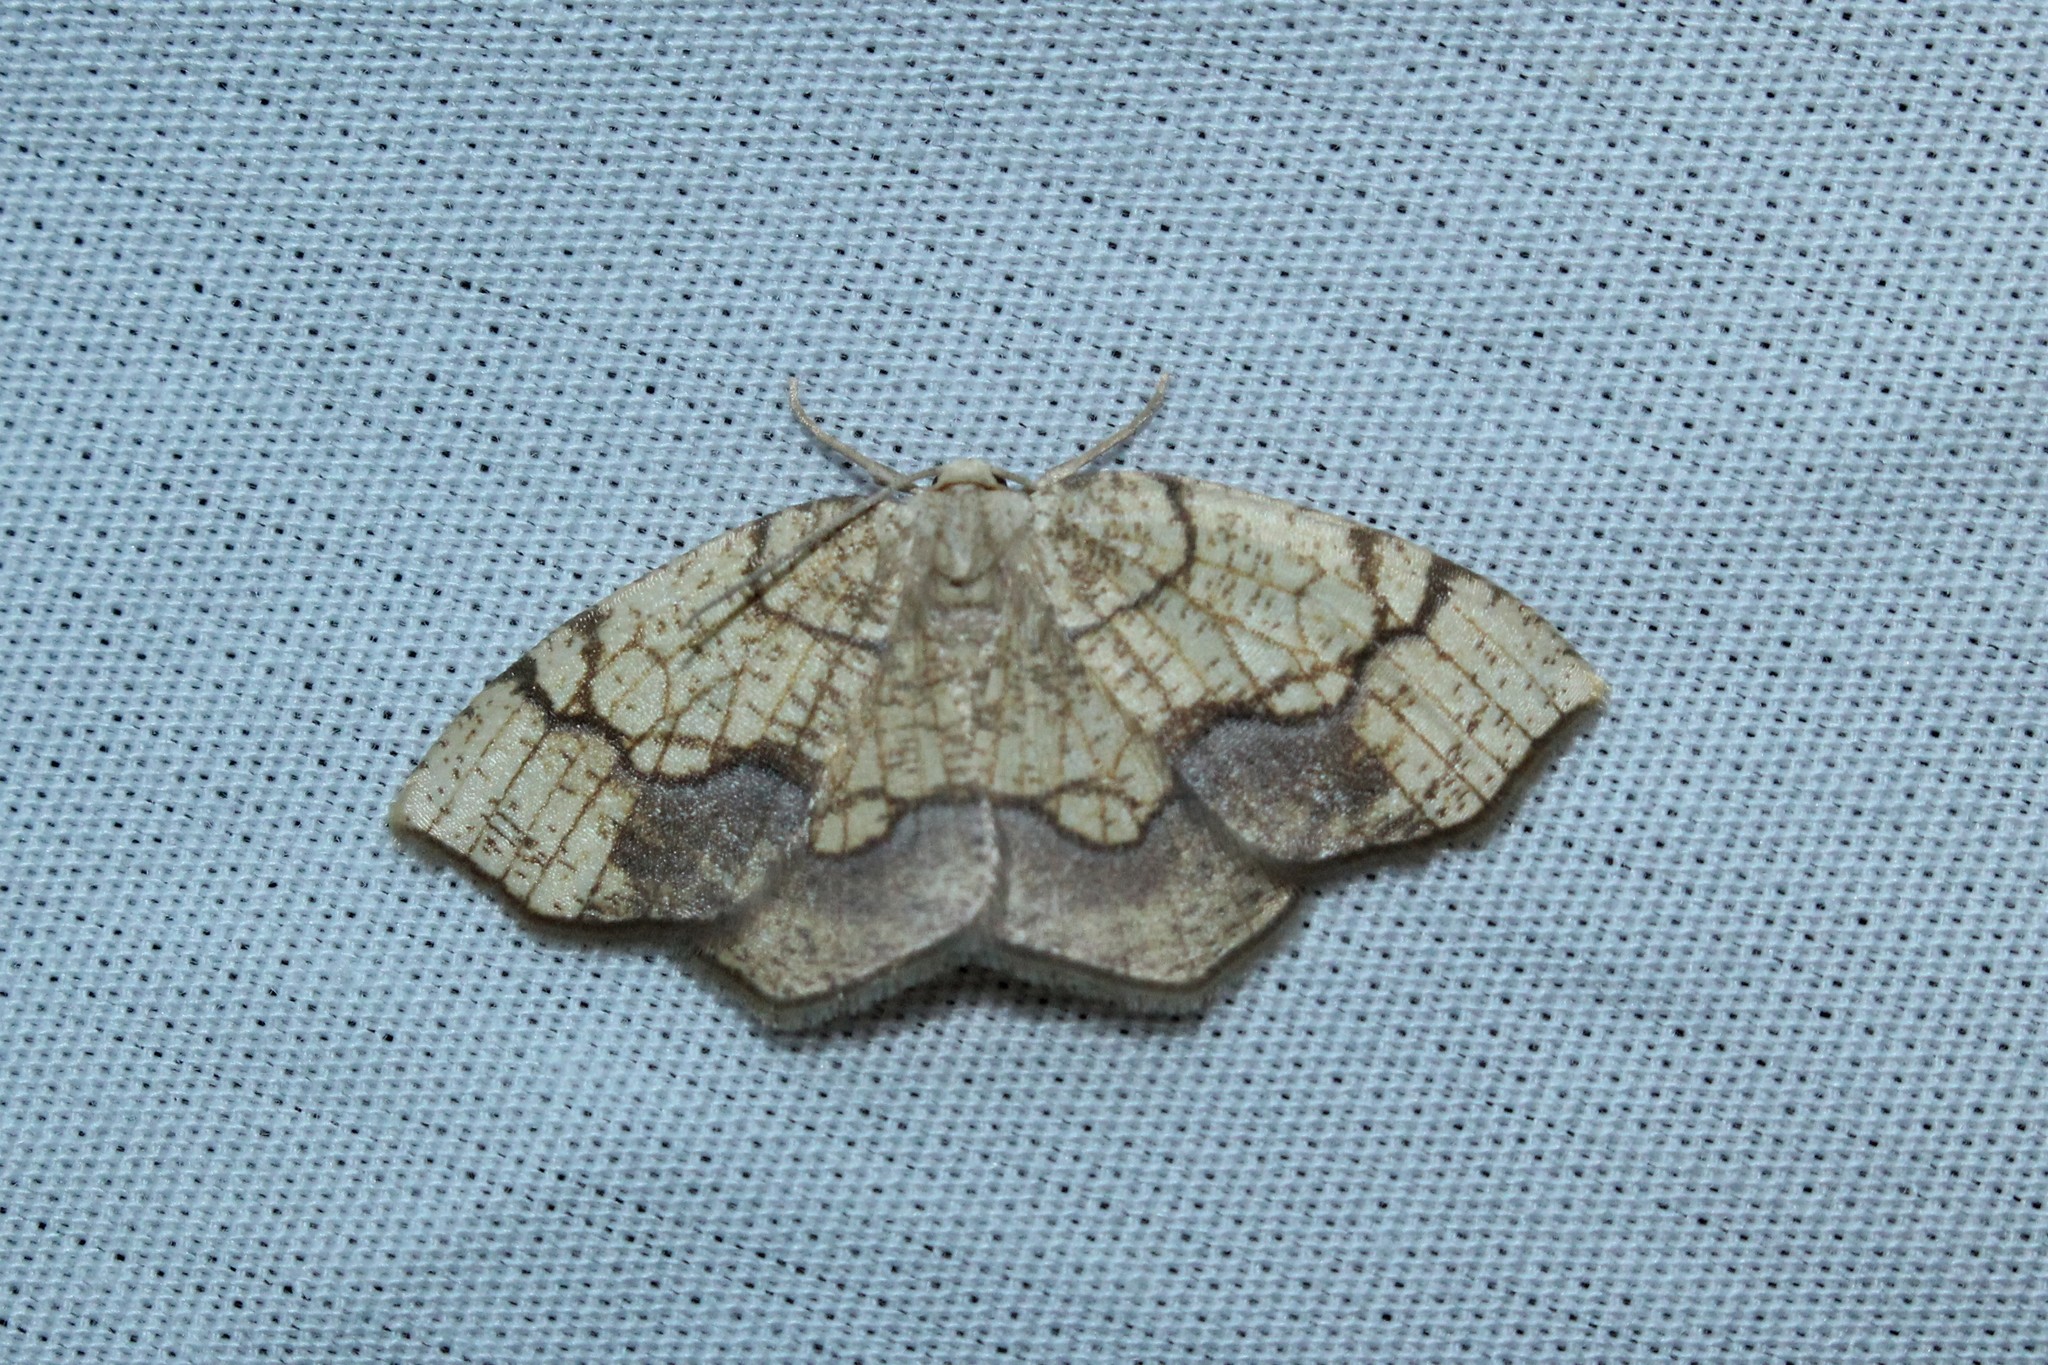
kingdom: Animalia
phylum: Arthropoda
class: Insecta
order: Lepidoptera
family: Geometridae
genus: Nematocampa
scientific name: Nematocampa resistaria
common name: Horned spanworm moth
